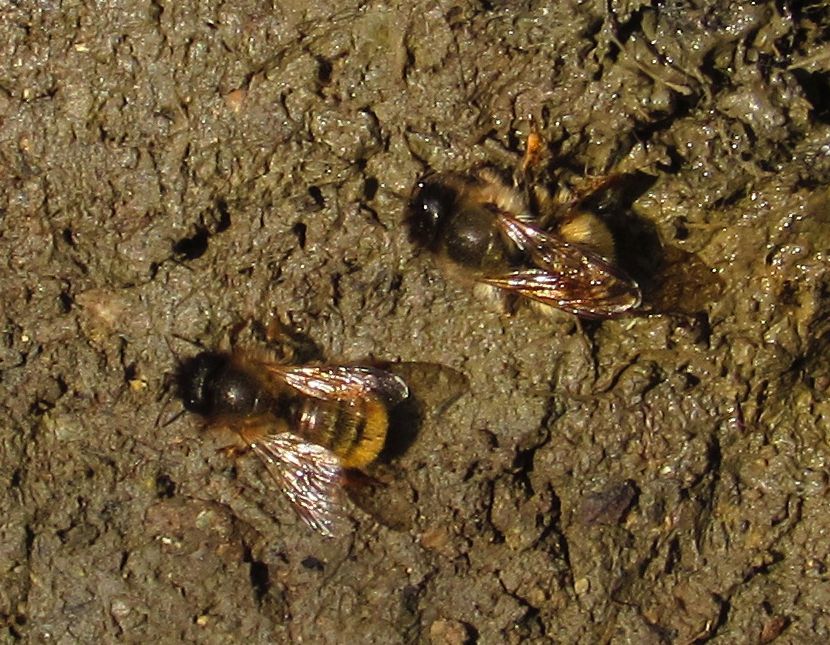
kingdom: Animalia
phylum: Arthropoda
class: Insecta
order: Hymenoptera
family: Megachilidae
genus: Osmia
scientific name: Osmia bicornis
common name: Red mason bee
